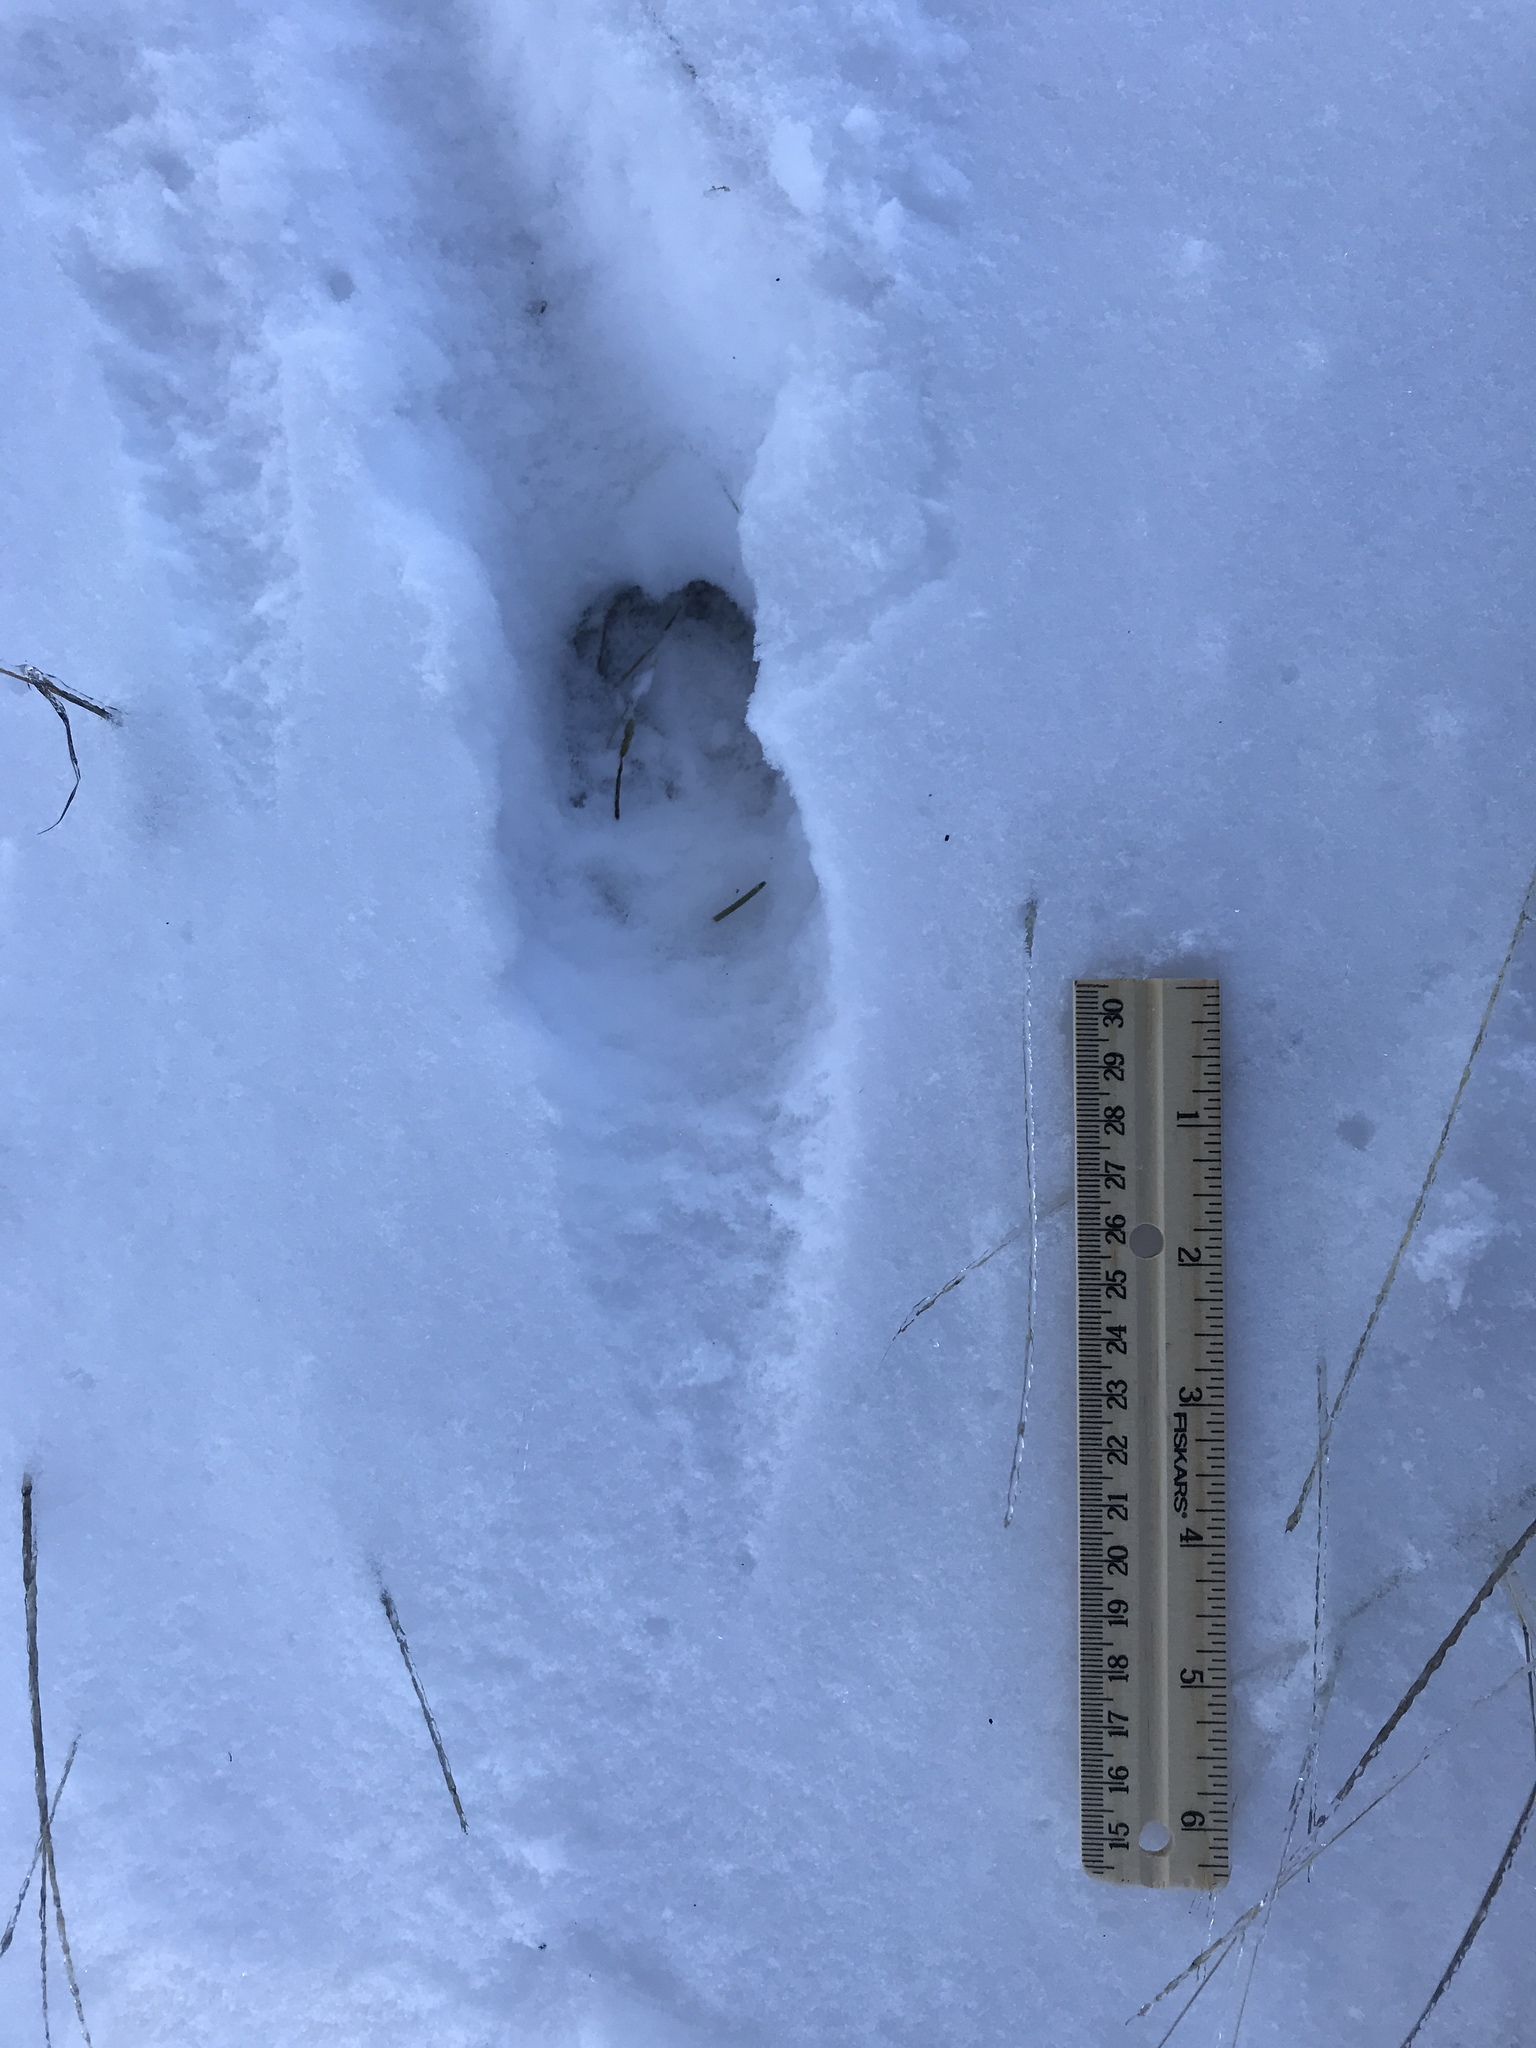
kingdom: Animalia
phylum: Chordata
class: Mammalia
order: Artiodactyla
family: Cervidae
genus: Odocoileus
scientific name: Odocoileus virginianus
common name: White-tailed deer
